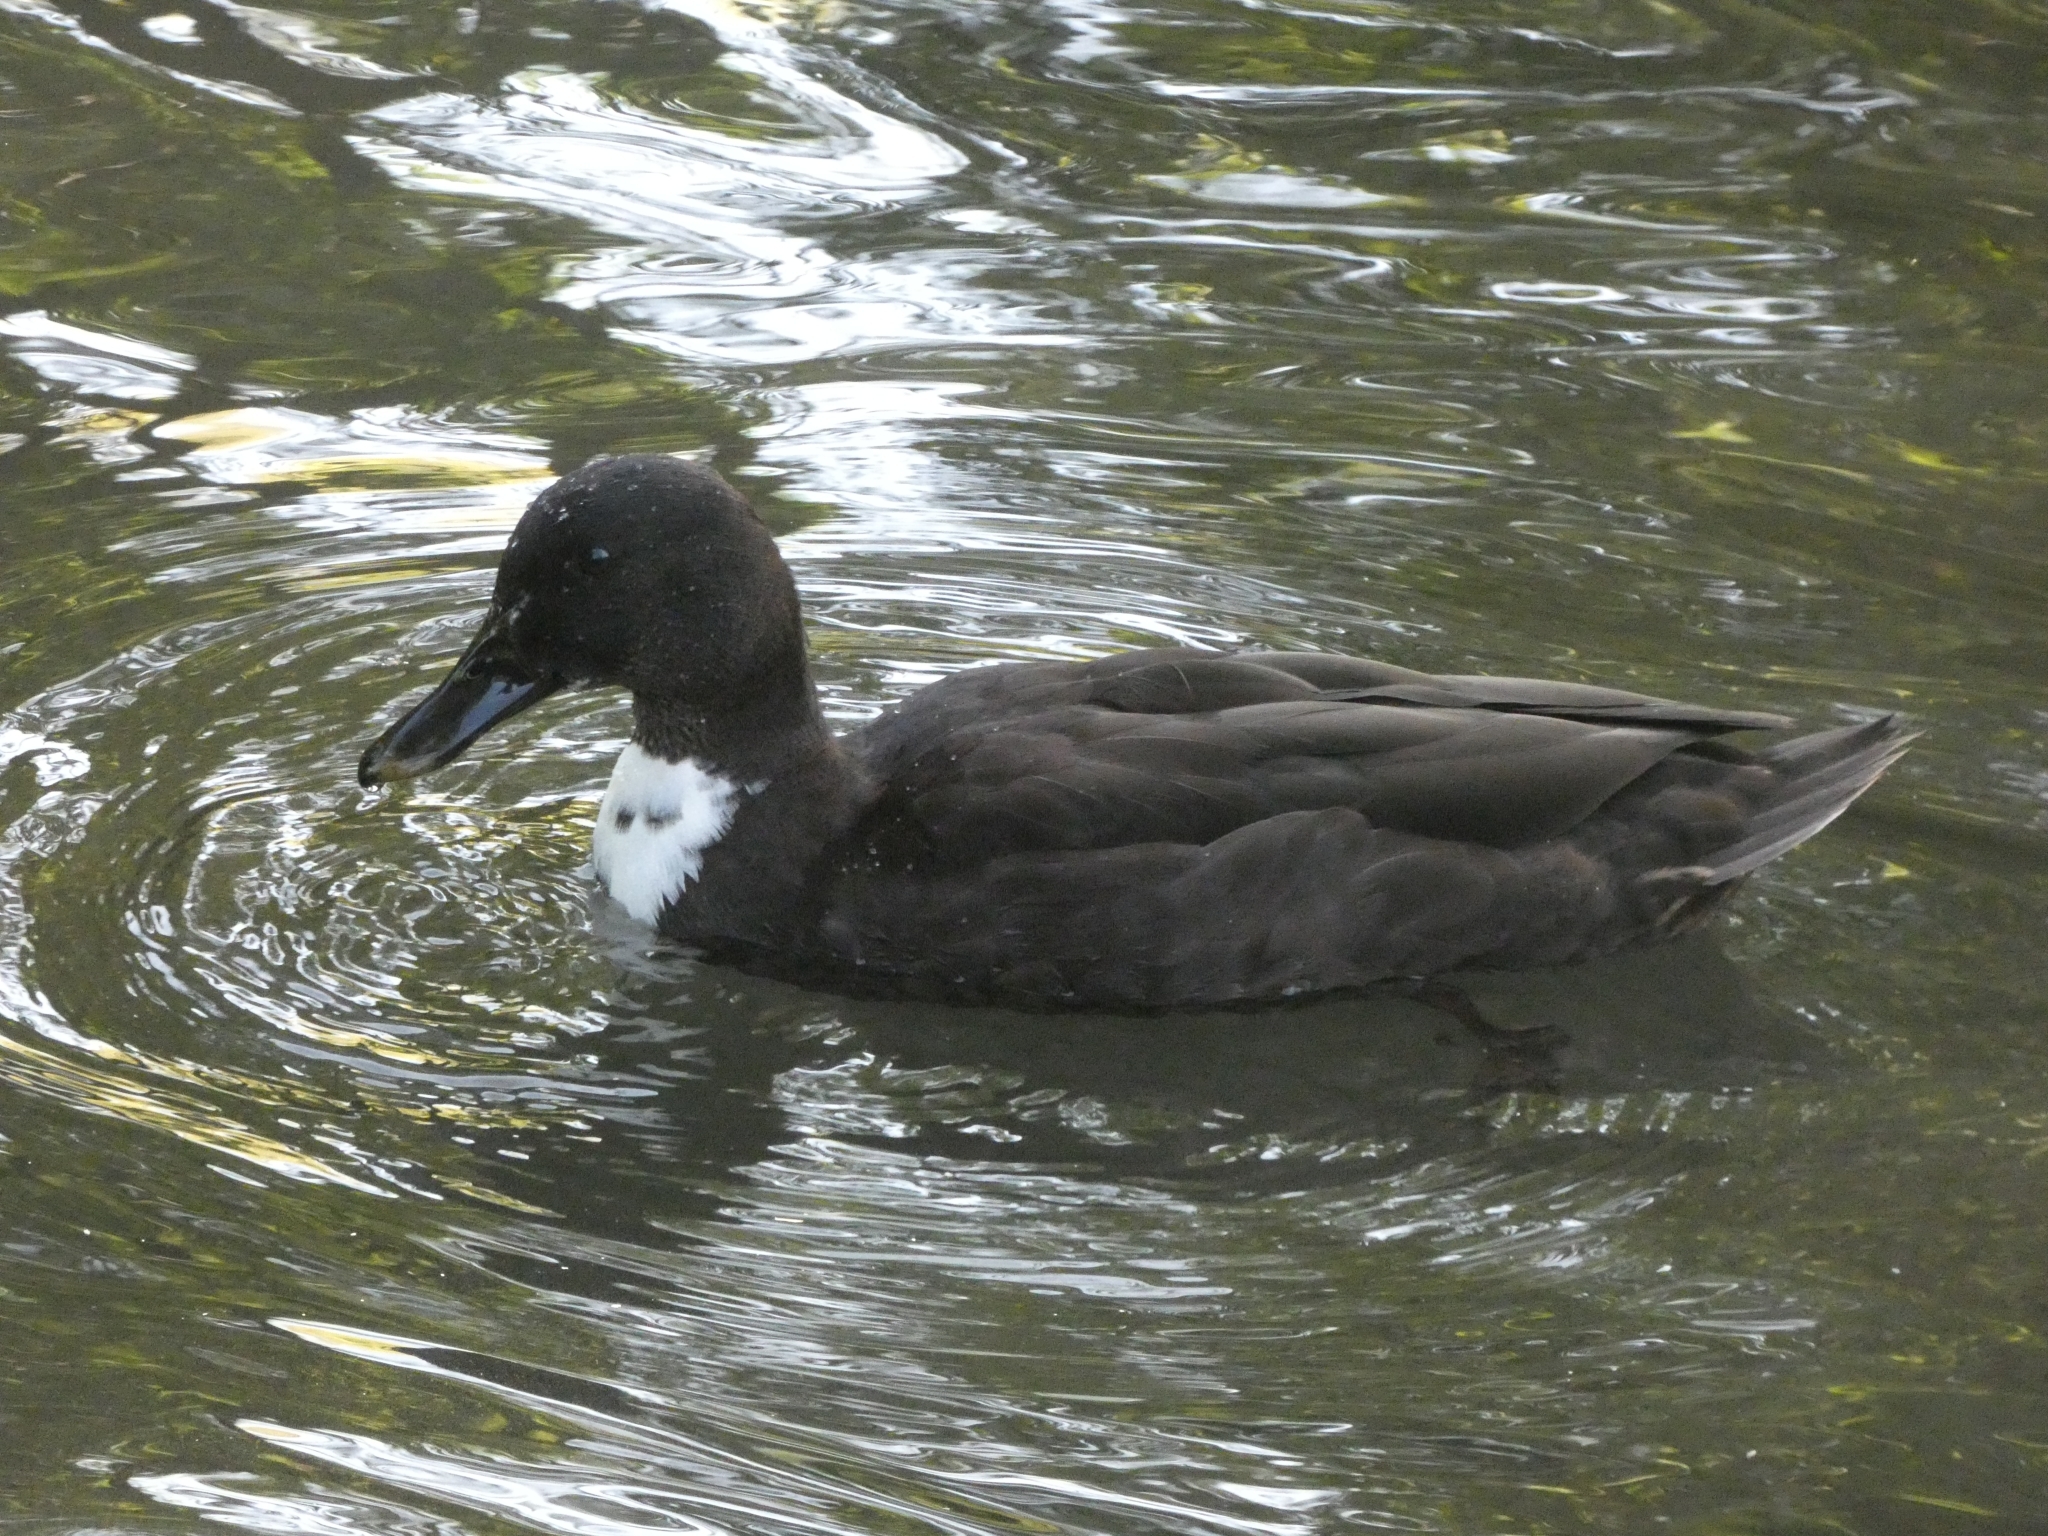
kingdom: Animalia
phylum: Chordata
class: Aves
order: Anseriformes
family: Anatidae
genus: Anas
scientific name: Anas platyrhynchos
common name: Mallard
